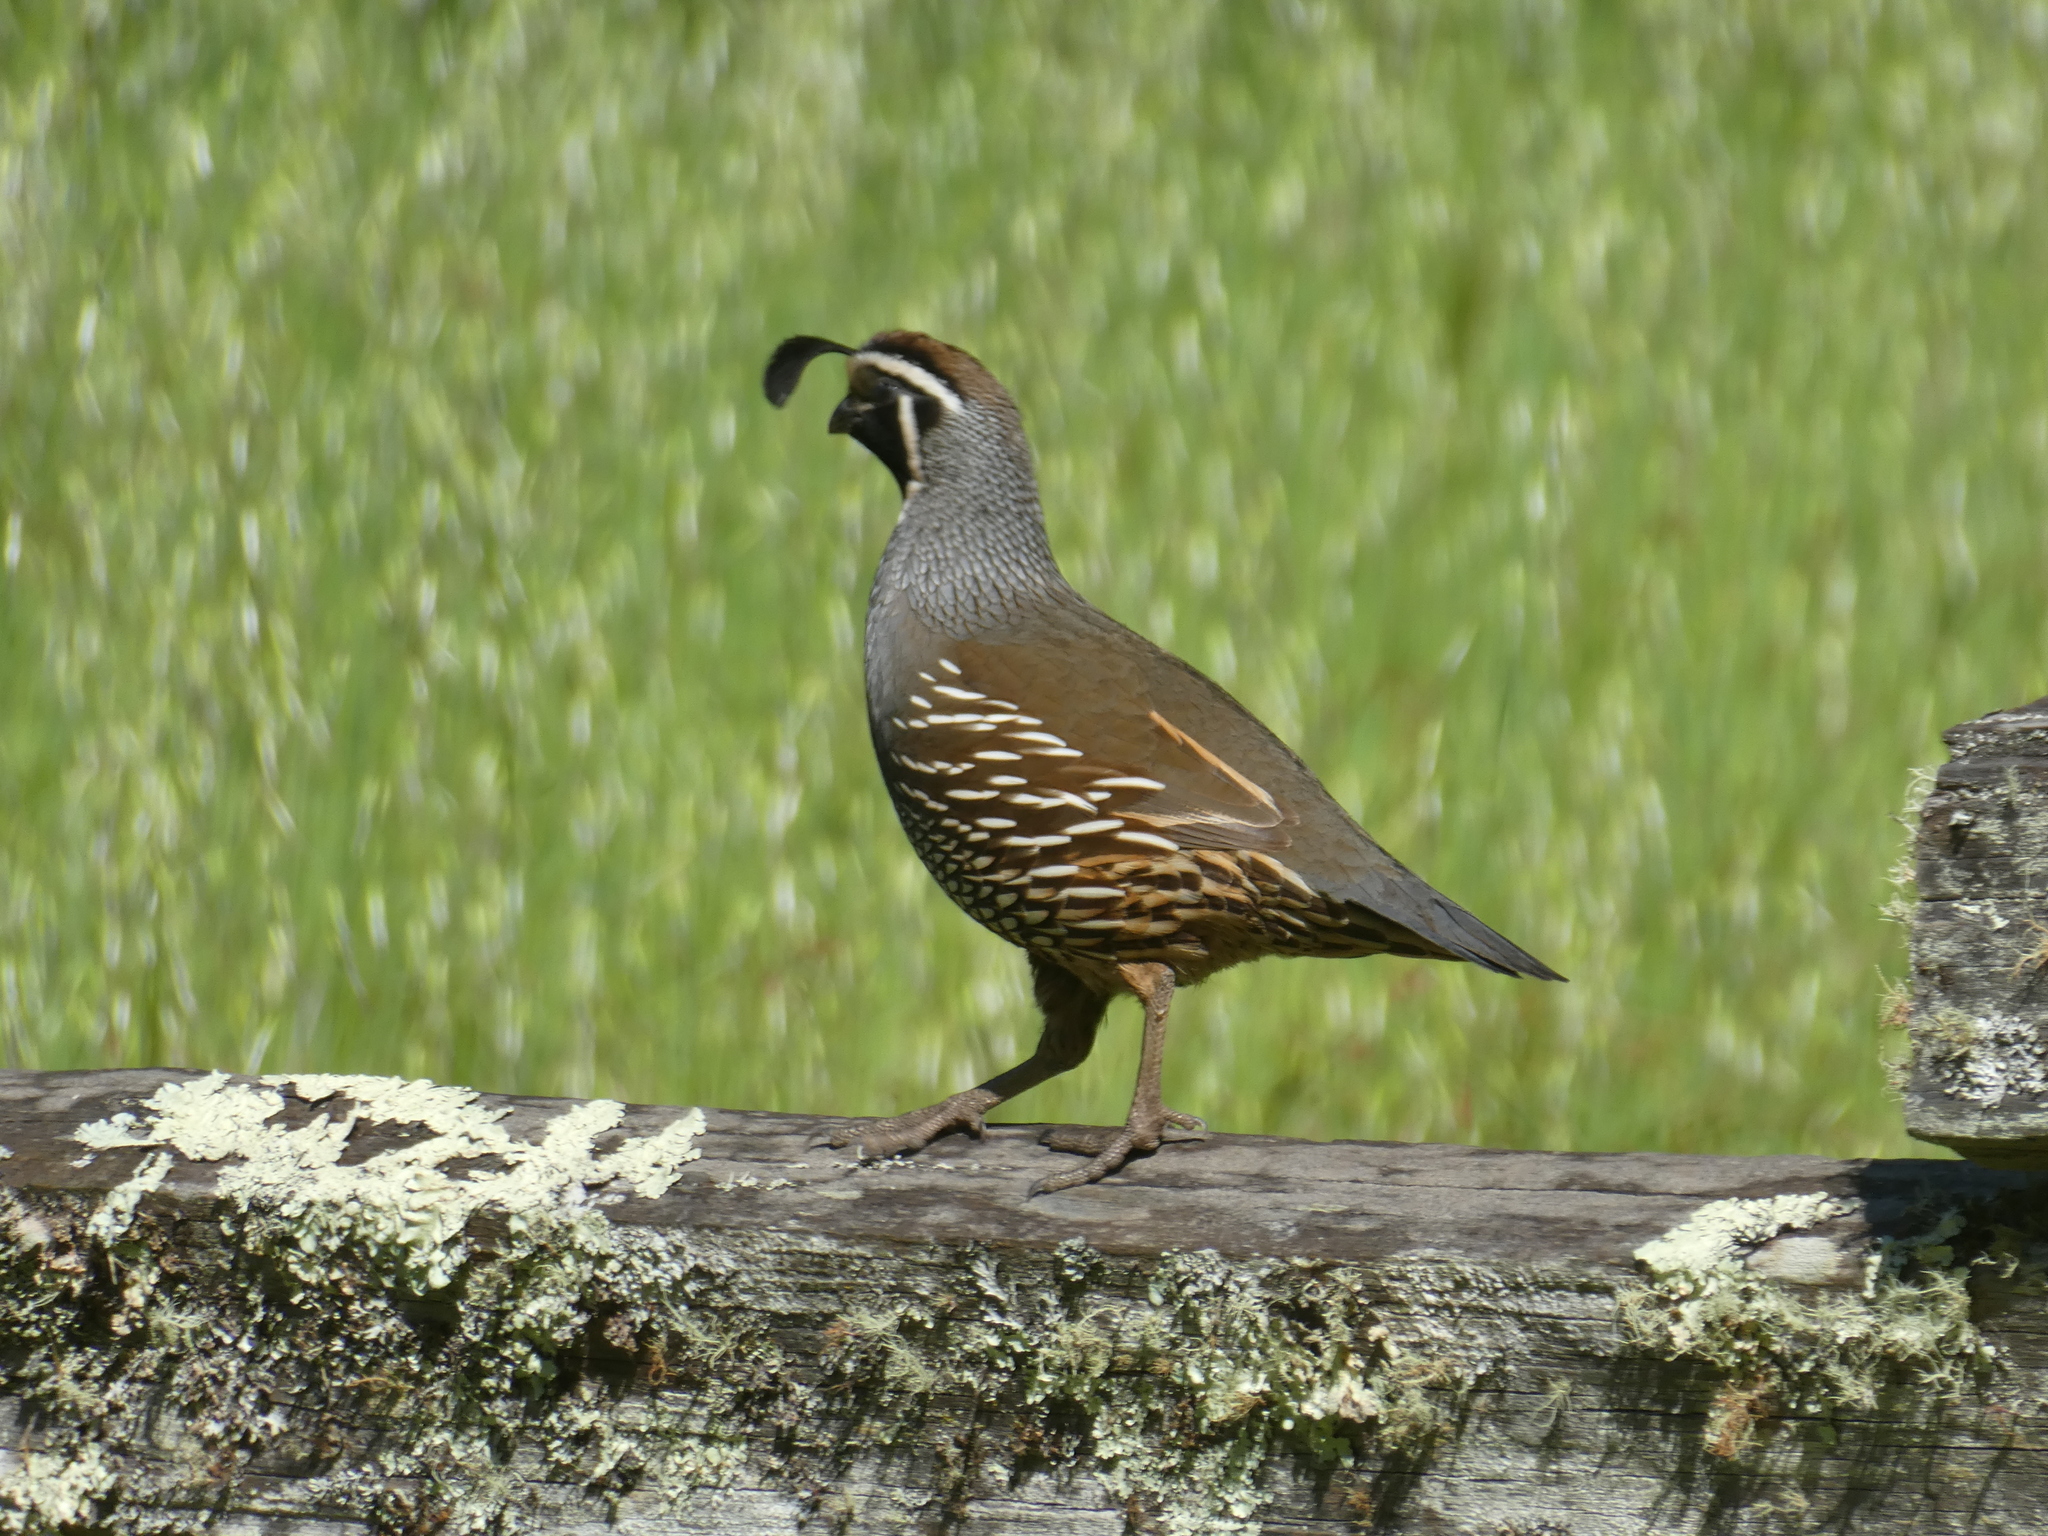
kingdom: Animalia
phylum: Chordata
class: Aves
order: Galliformes
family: Odontophoridae
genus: Callipepla
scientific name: Callipepla californica
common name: California quail
